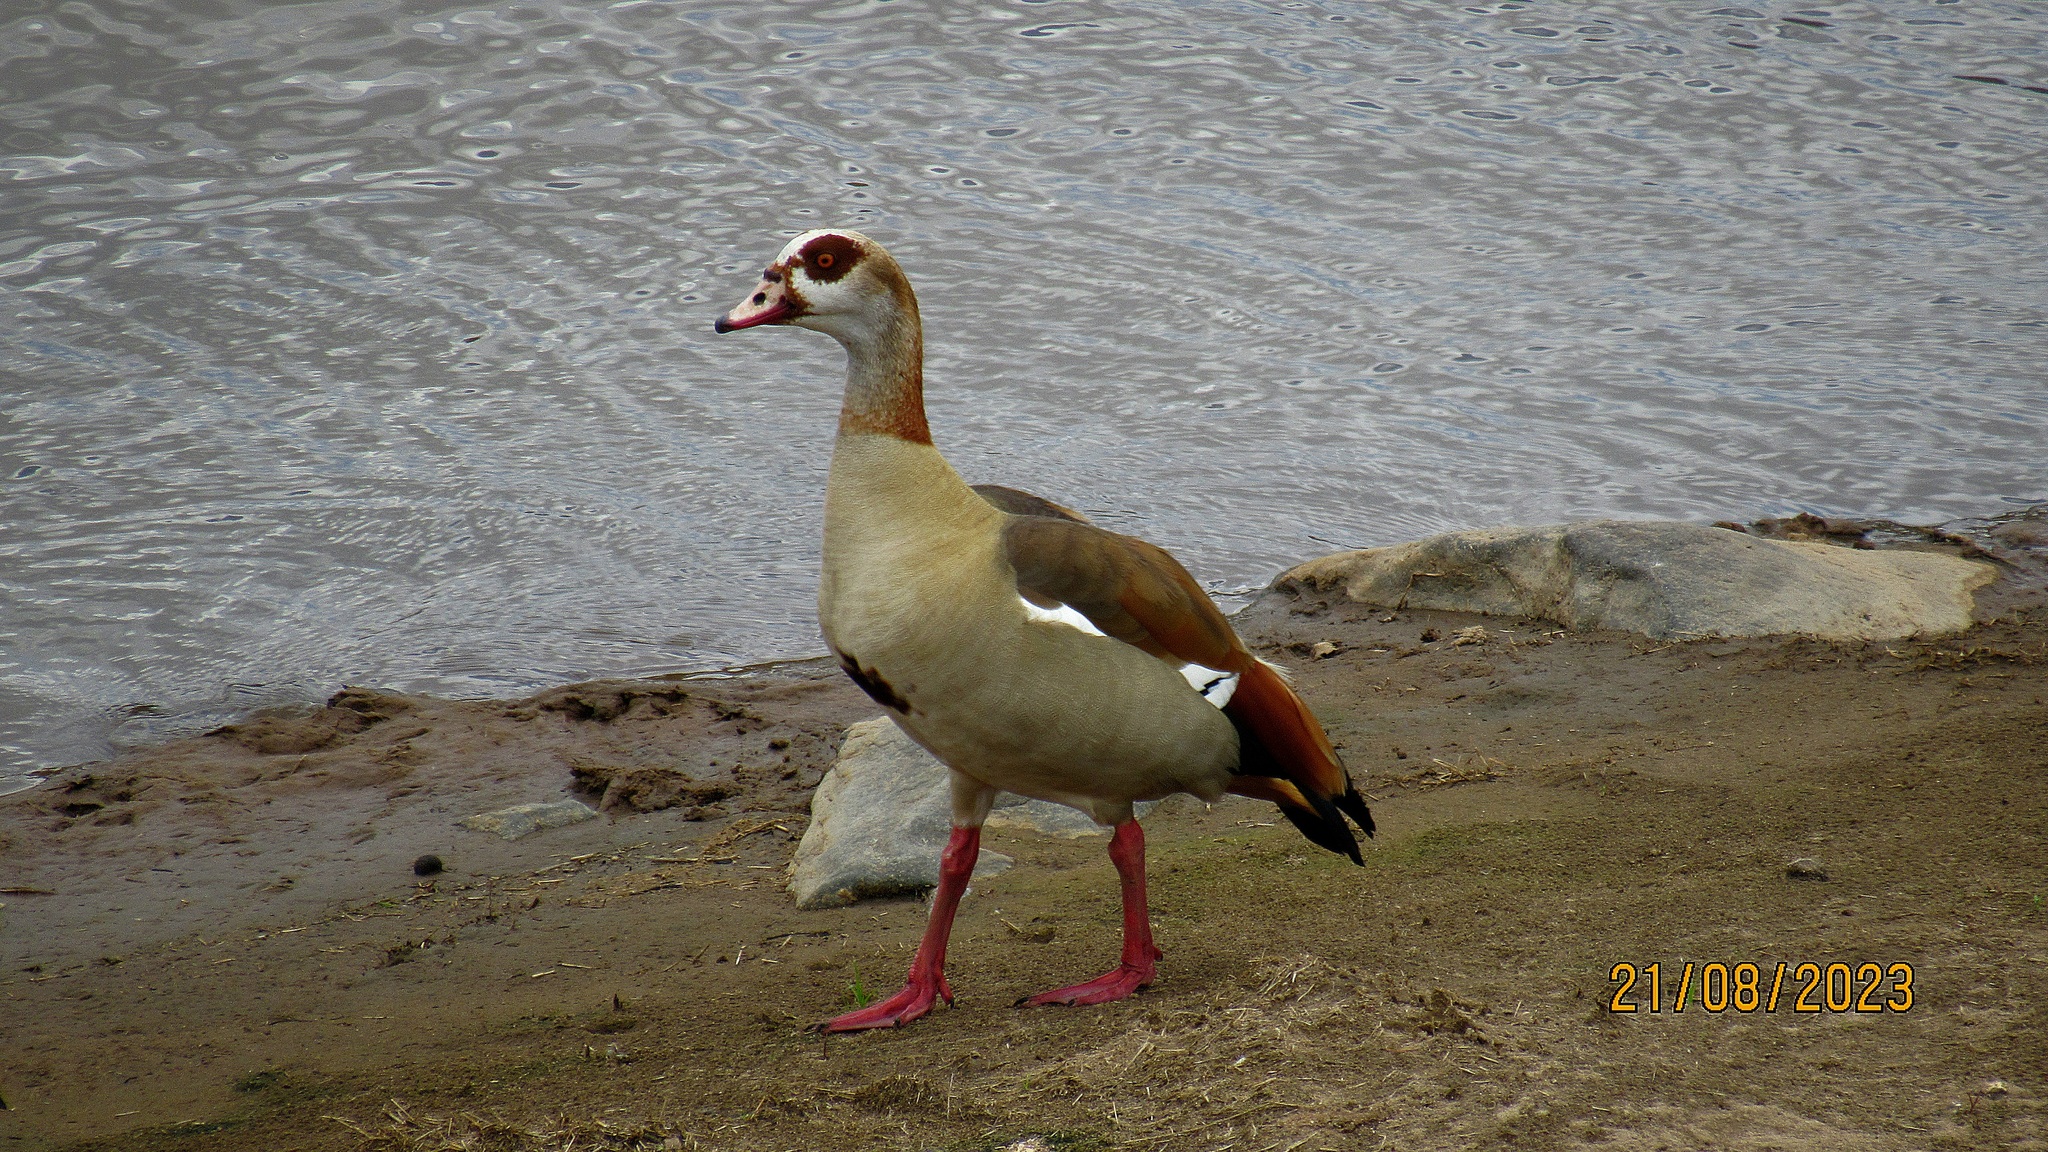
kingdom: Animalia
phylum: Chordata
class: Aves
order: Anseriformes
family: Anatidae
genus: Alopochen
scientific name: Alopochen aegyptiaca
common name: Egyptian goose
